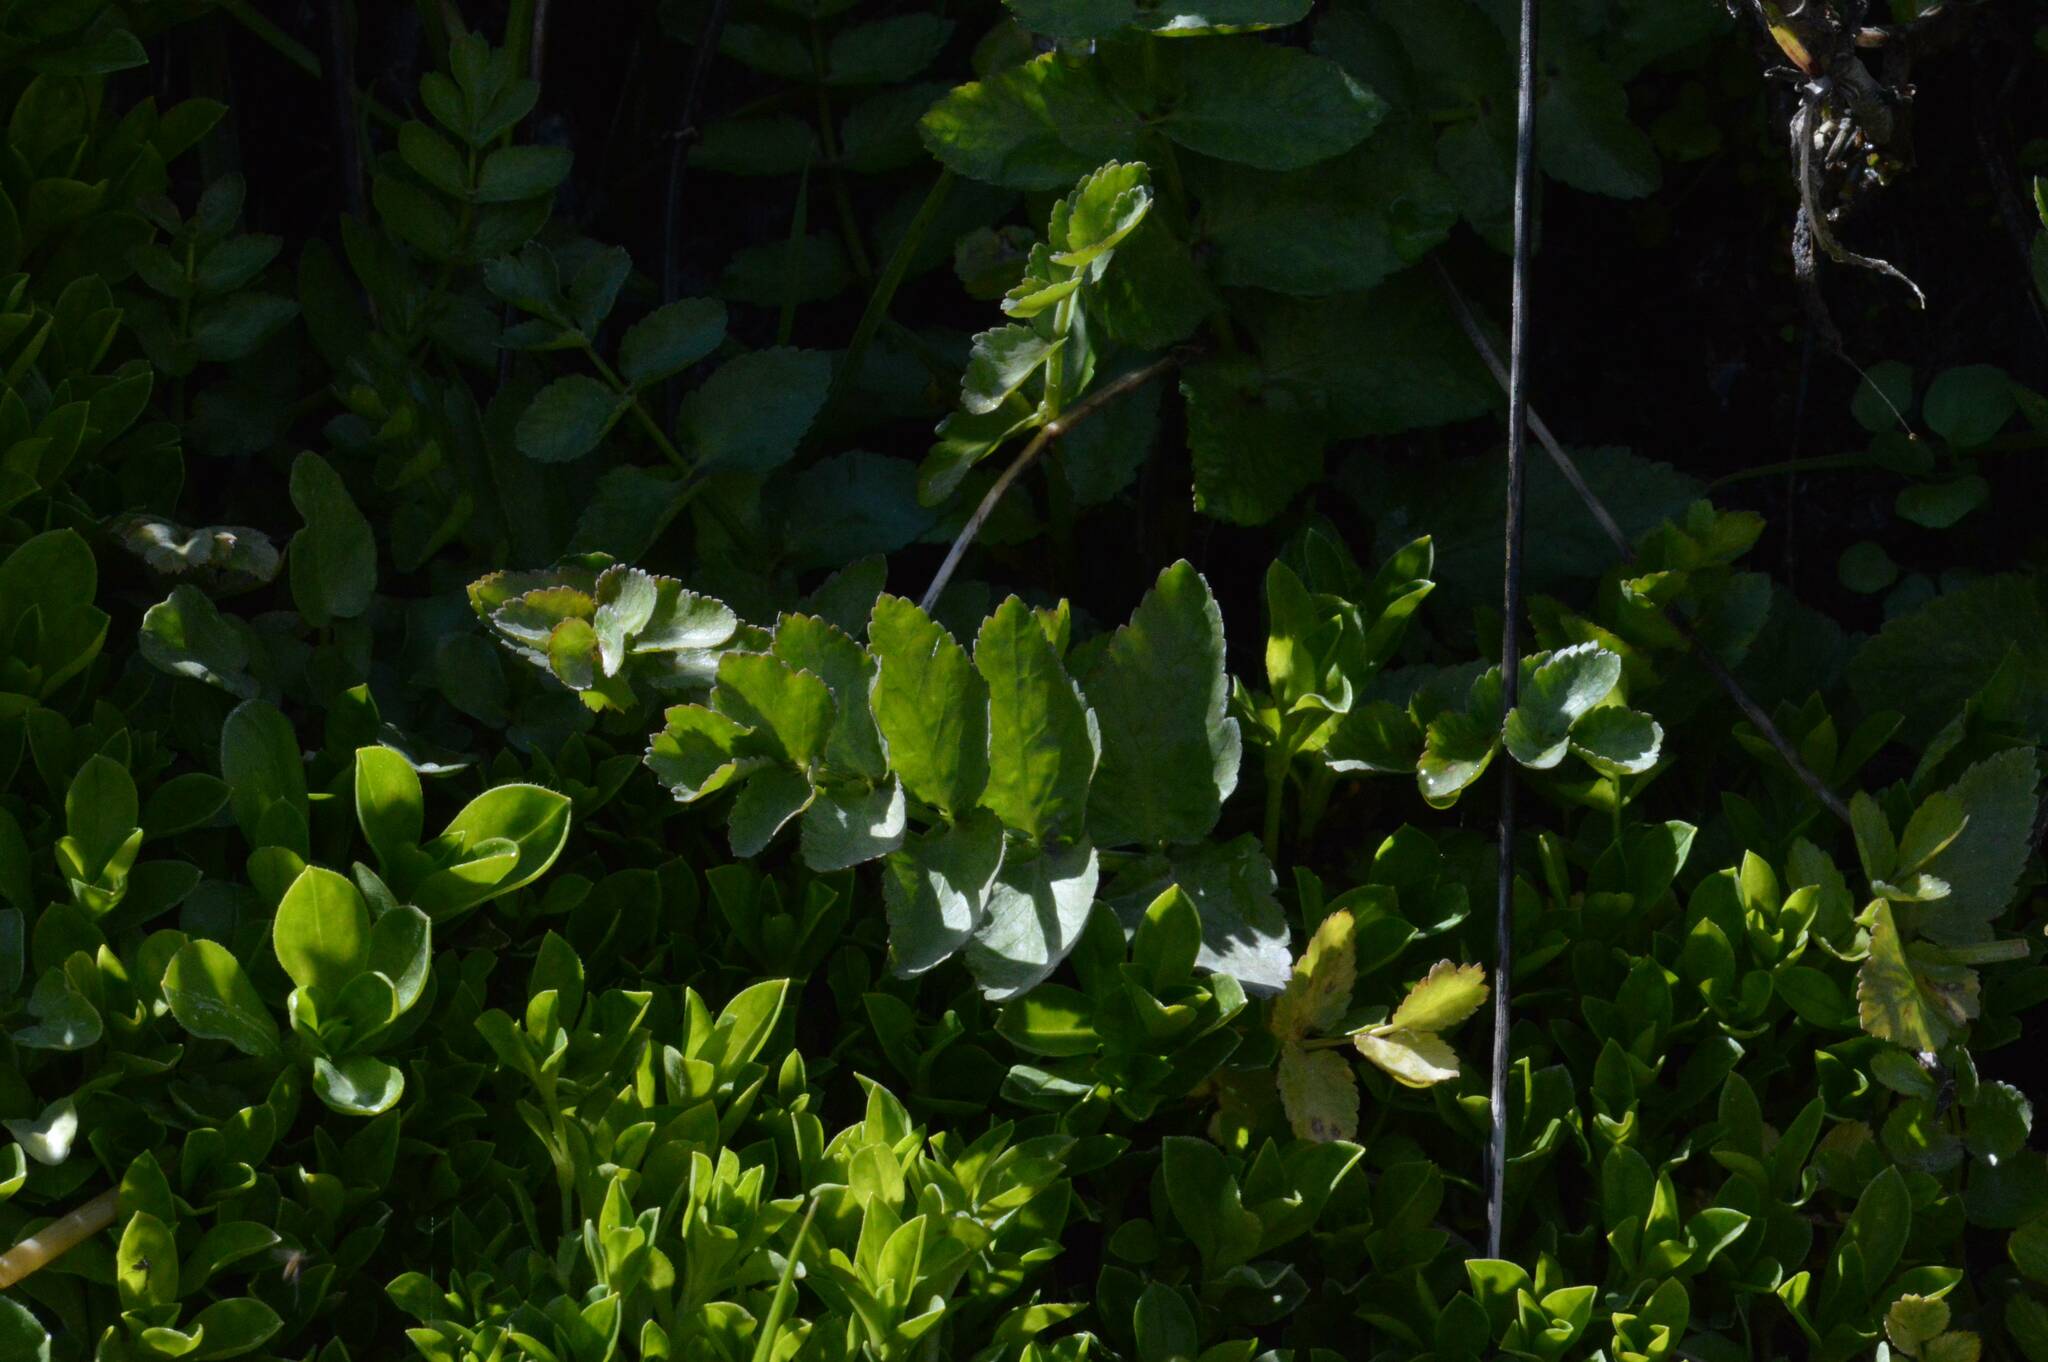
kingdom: Plantae
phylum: Tracheophyta
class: Magnoliopsida
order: Apiales
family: Apiaceae
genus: Helosciadium
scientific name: Helosciadium nodiflorum
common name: Fool's-watercress
